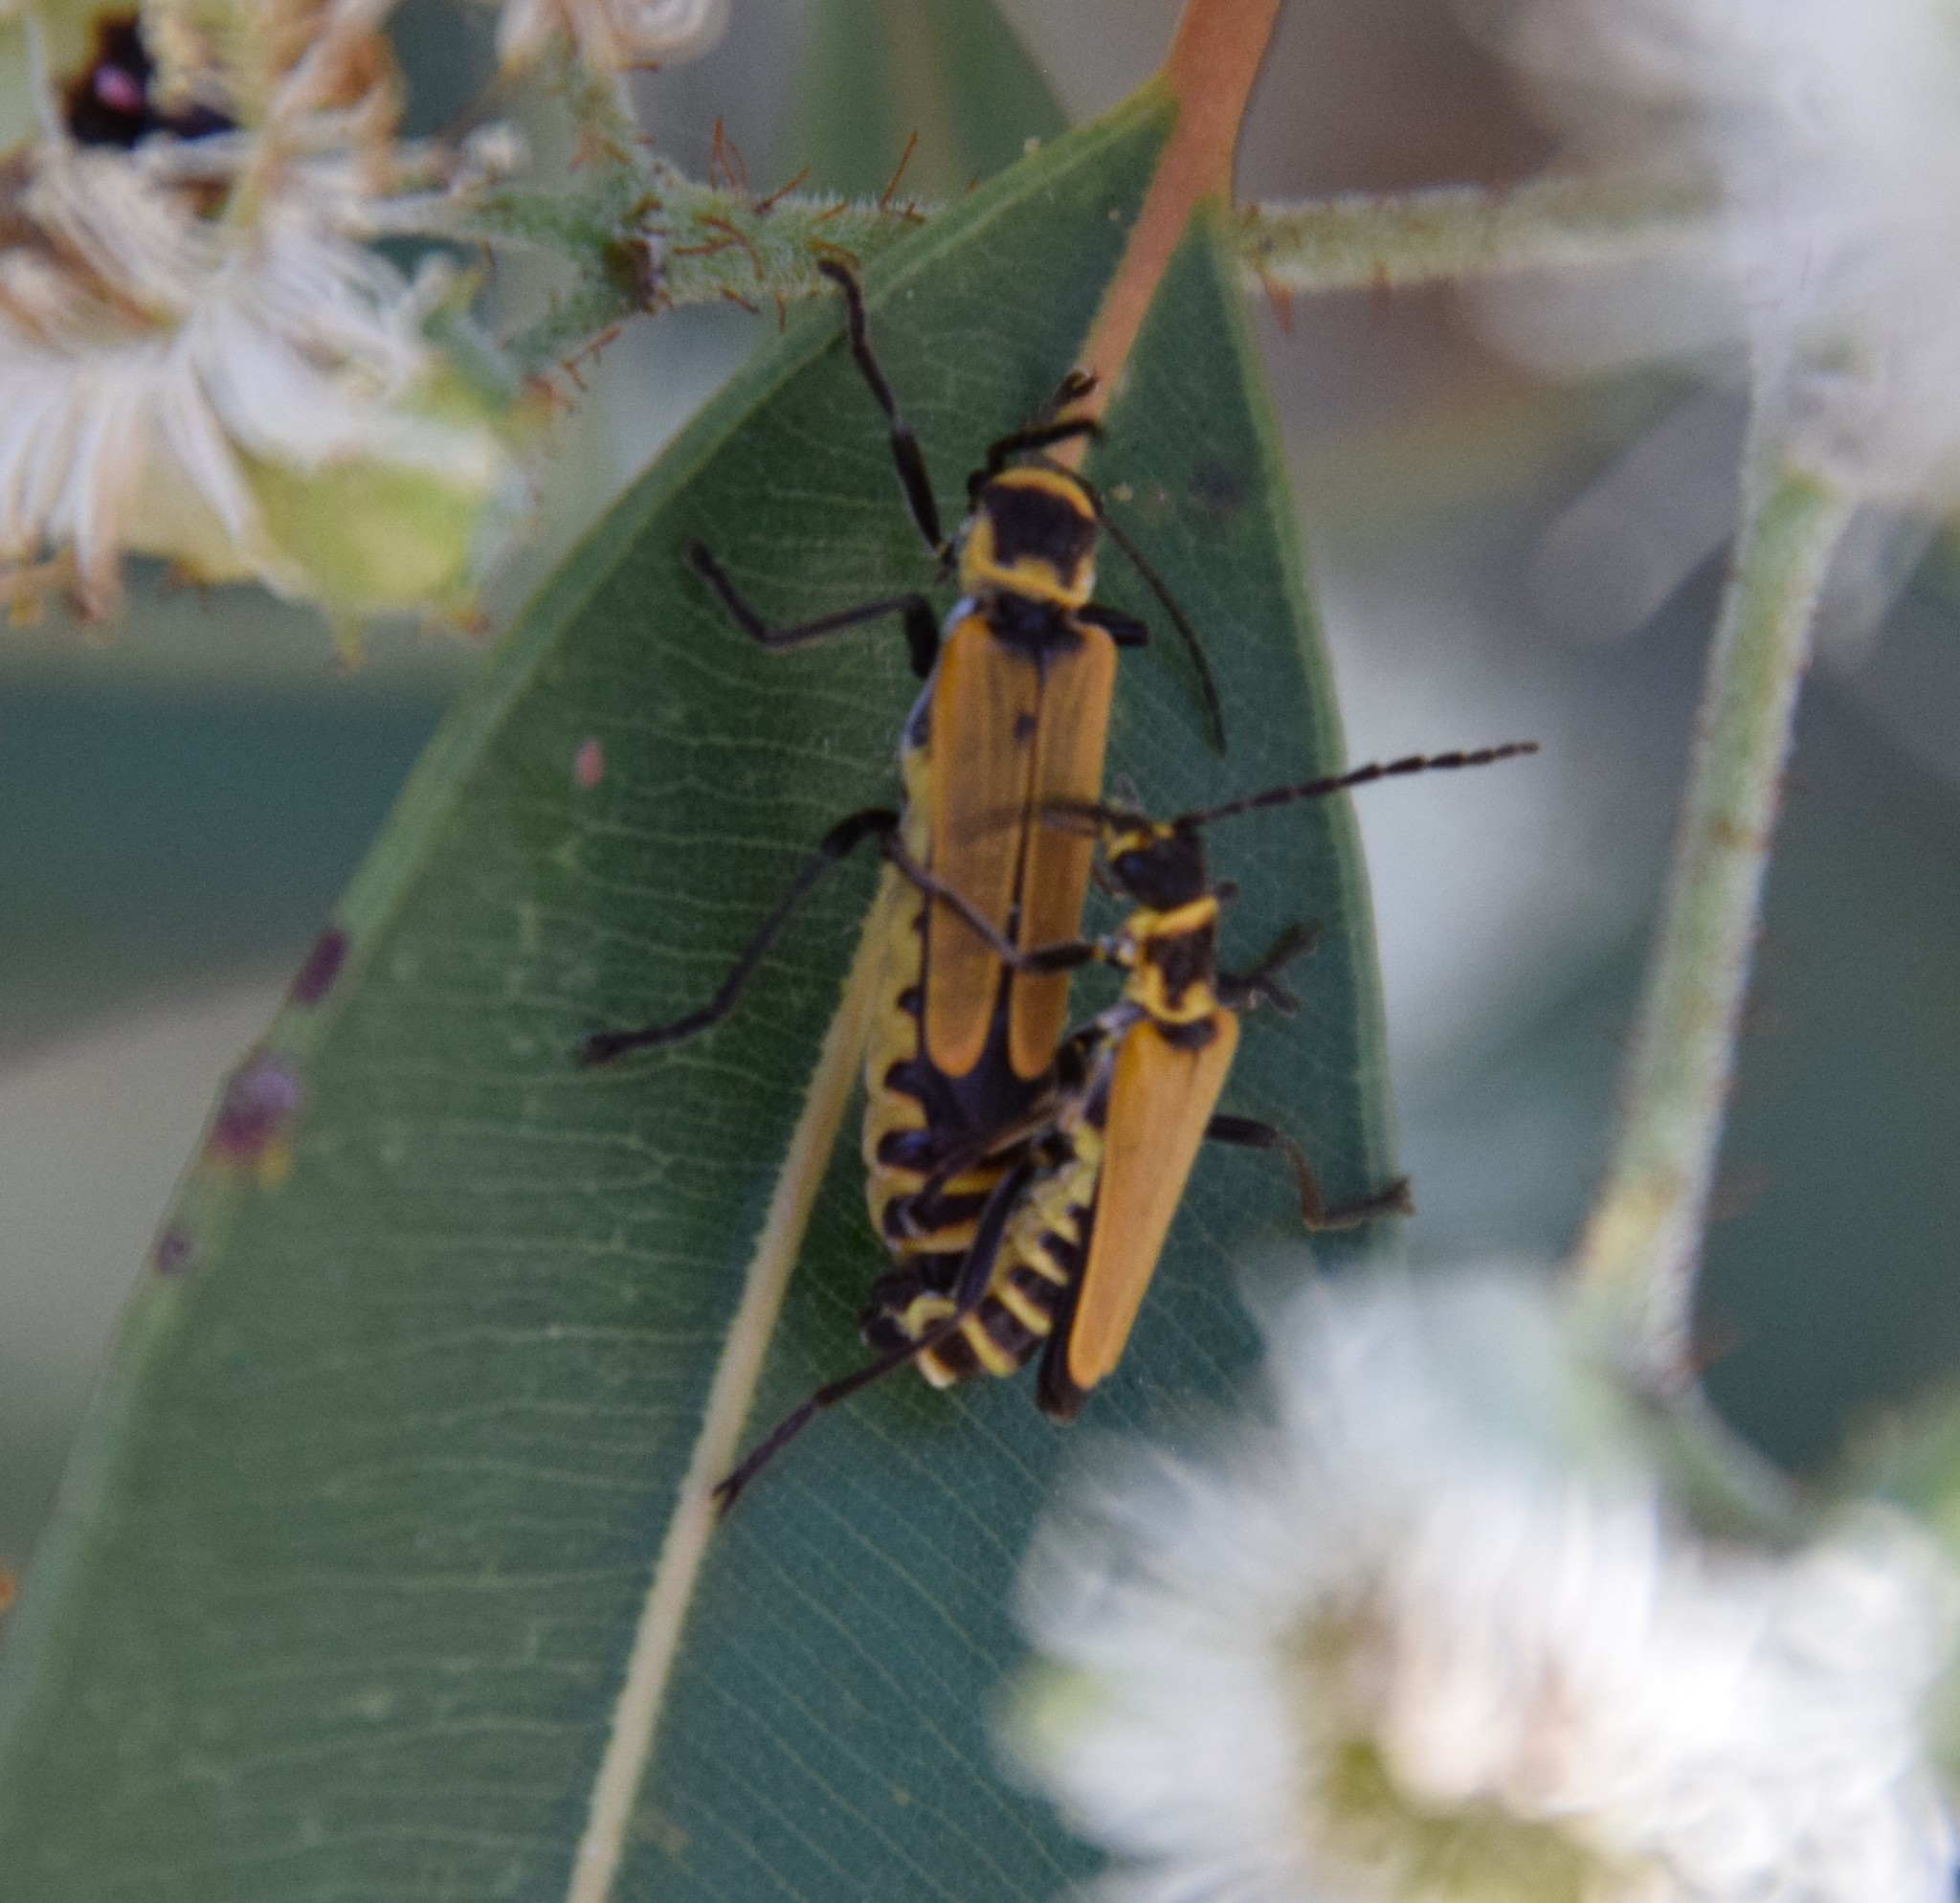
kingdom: Animalia
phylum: Arthropoda
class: Insecta
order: Coleoptera
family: Cantharidae
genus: Chauliognathus
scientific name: Chauliognathus
